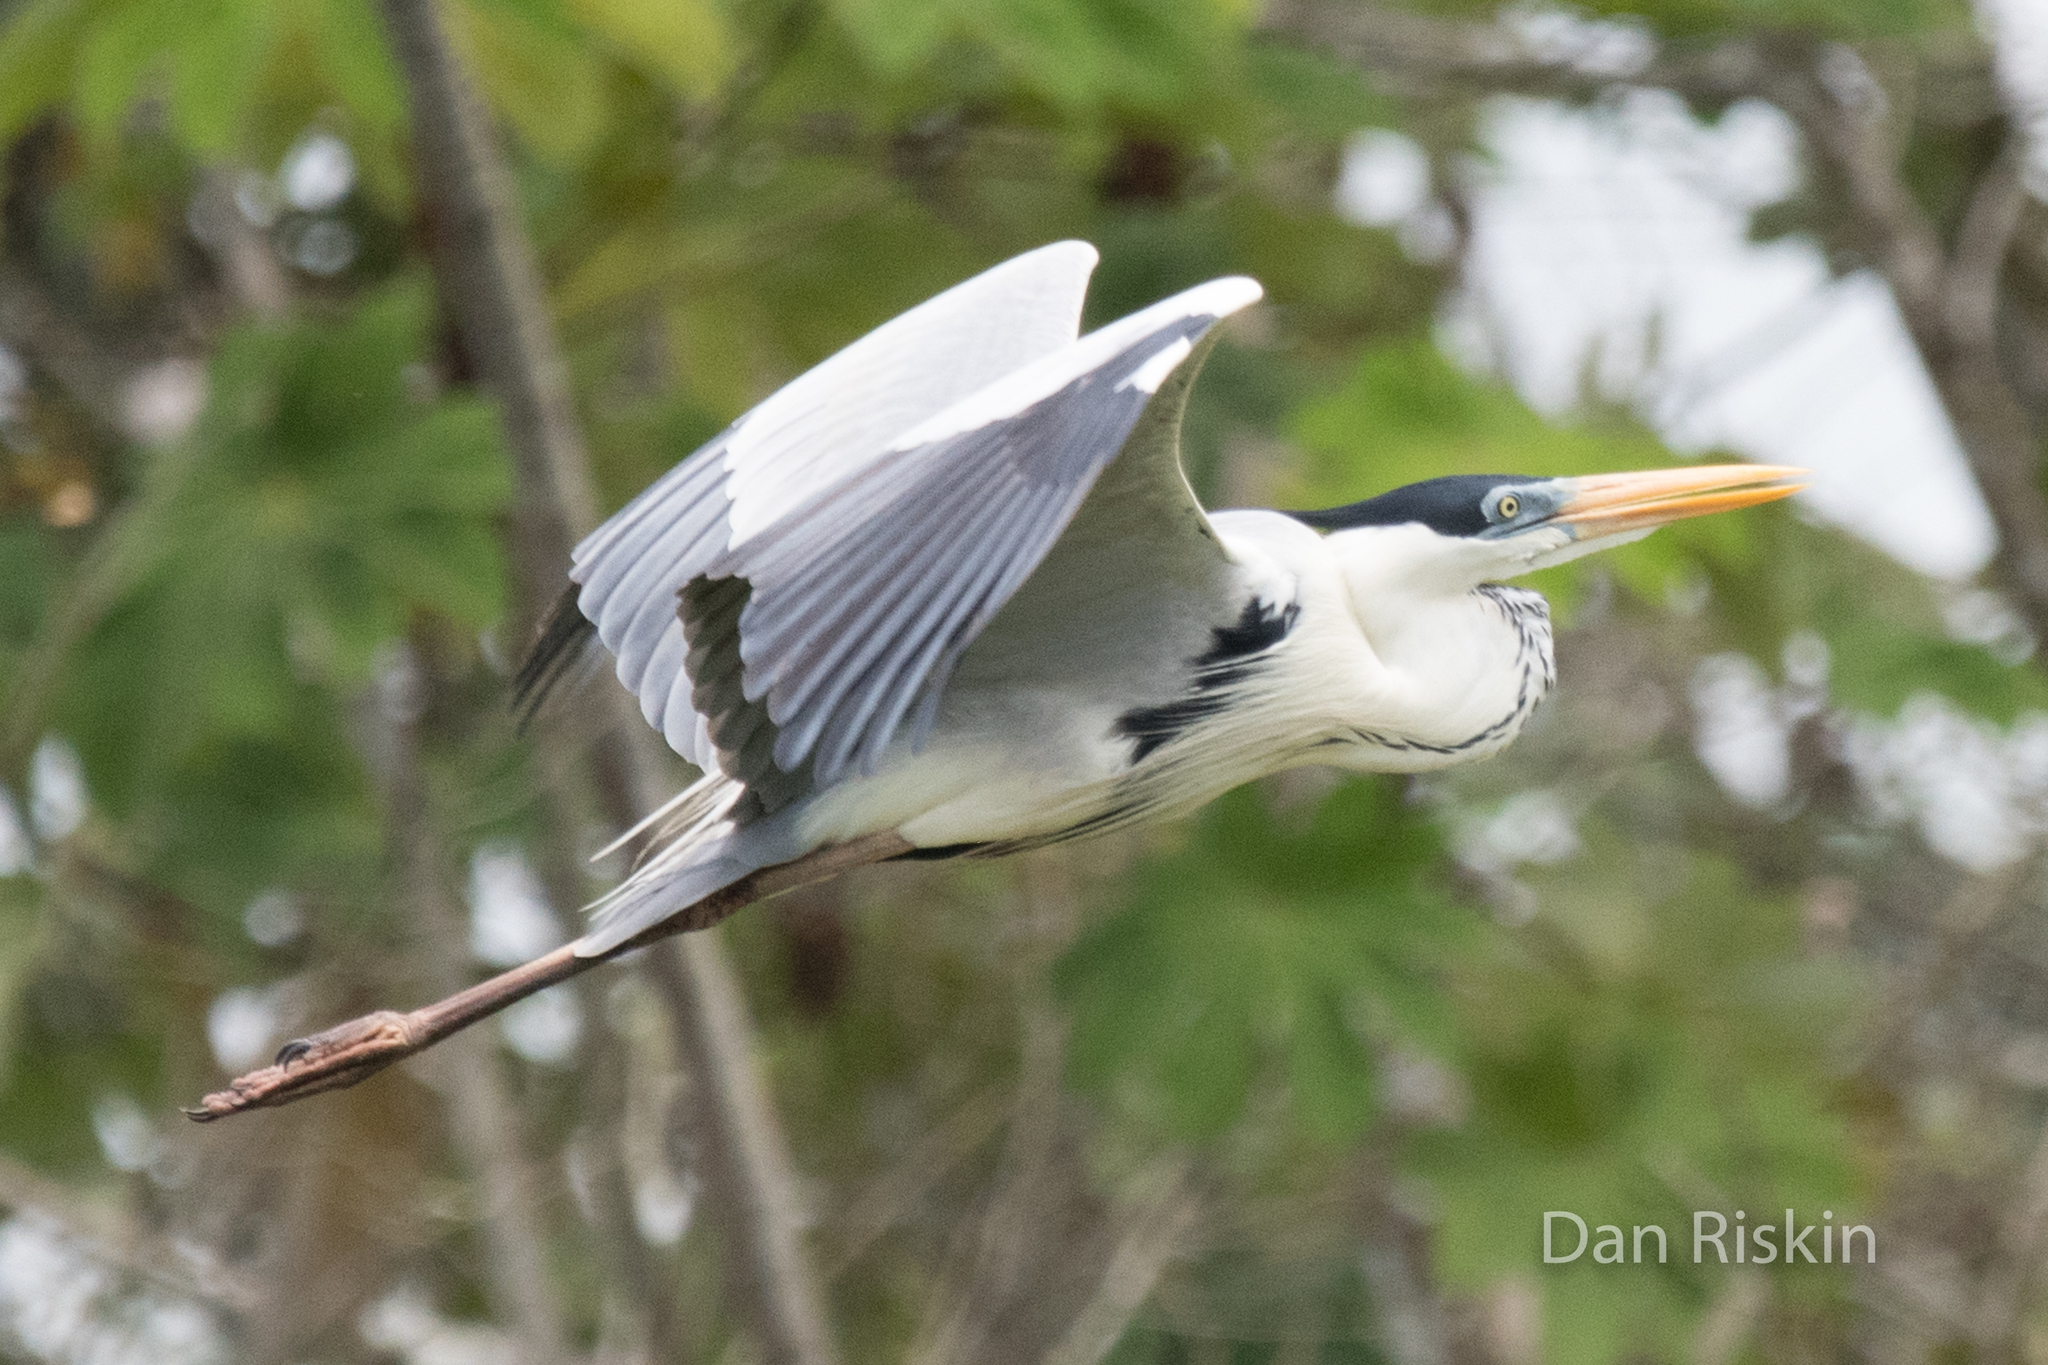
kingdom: Animalia
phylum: Chordata
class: Aves
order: Pelecaniformes
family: Ardeidae
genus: Ardea
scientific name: Ardea cocoi
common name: Cocoi heron
